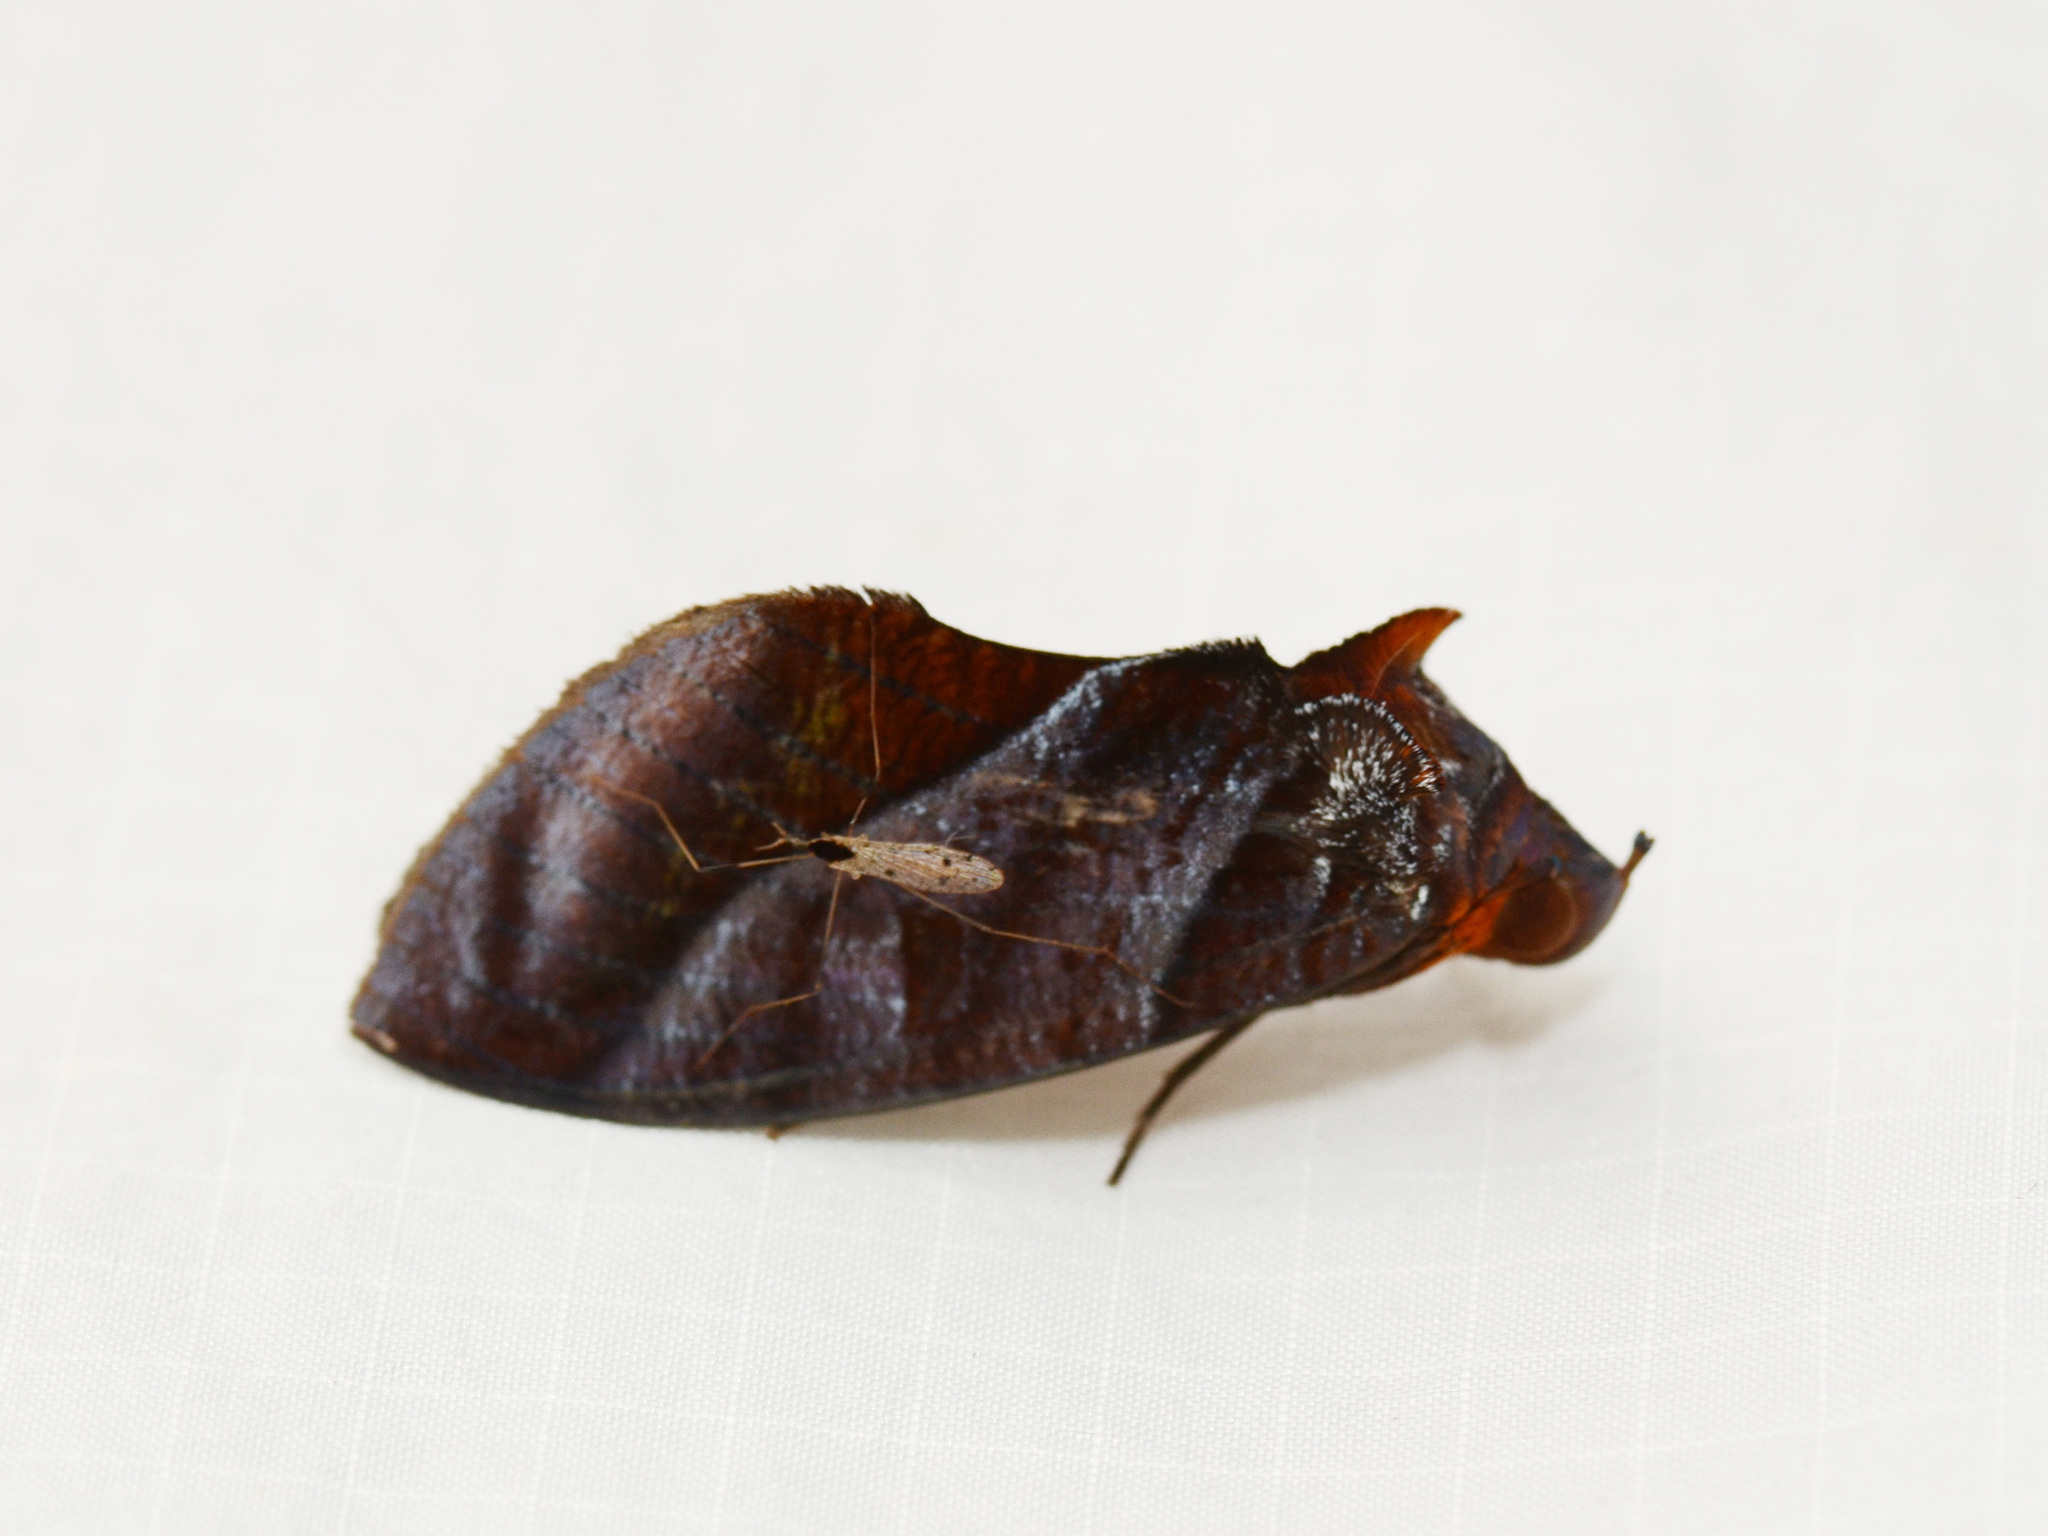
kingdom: Animalia
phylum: Arthropoda
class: Insecta
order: Lepidoptera
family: Erebidae
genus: Eudocima
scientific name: Eudocima homaena
